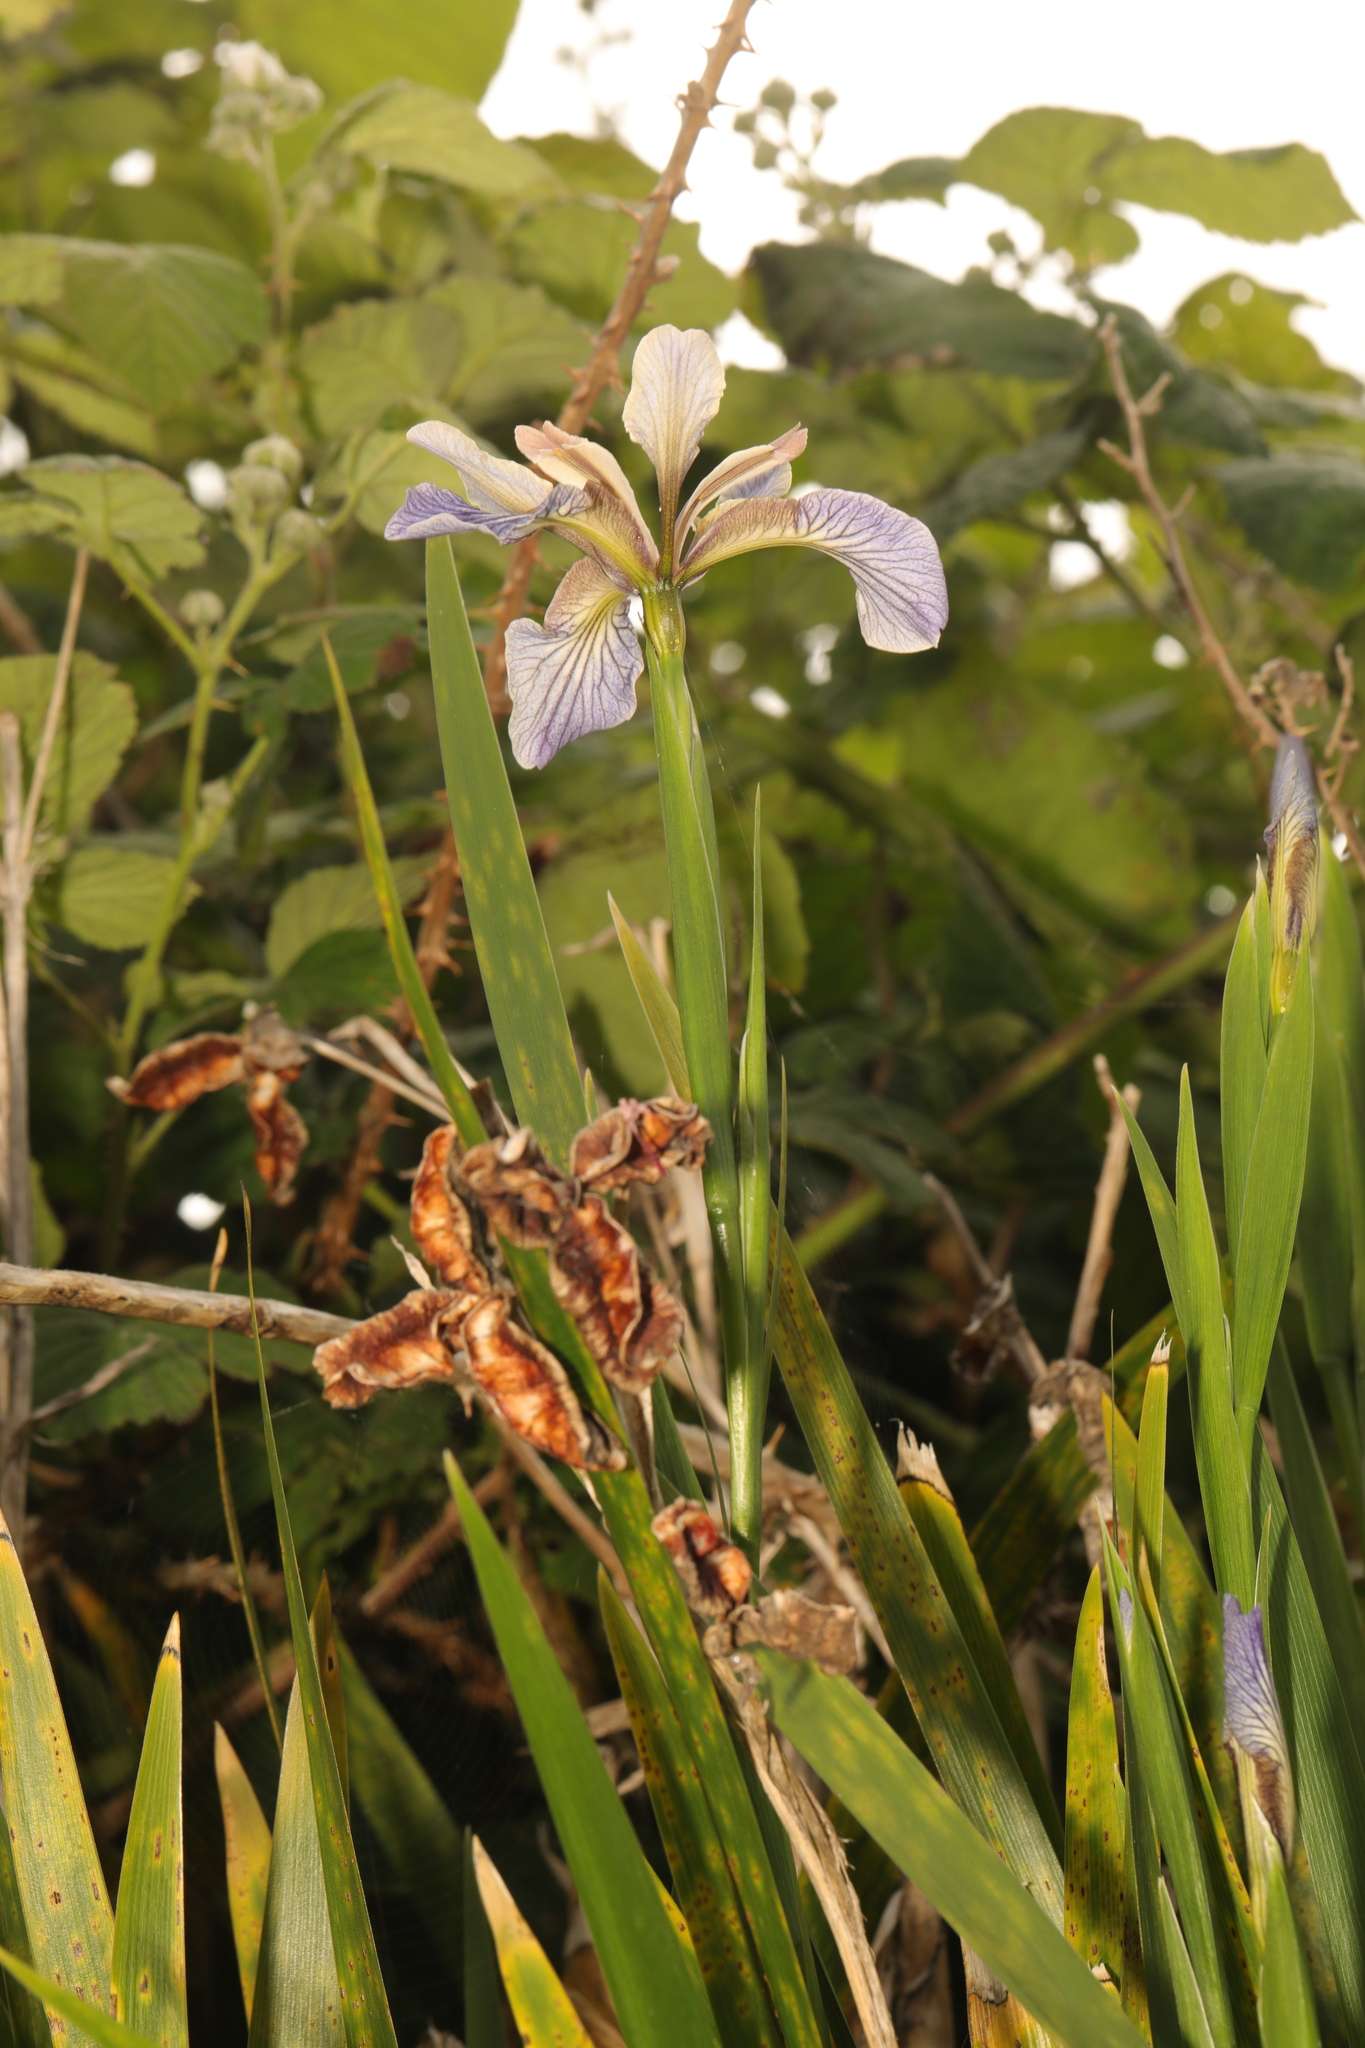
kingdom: Plantae
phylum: Tracheophyta
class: Liliopsida
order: Asparagales
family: Iridaceae
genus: Iris
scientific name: Iris foetidissima
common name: Stinking iris
